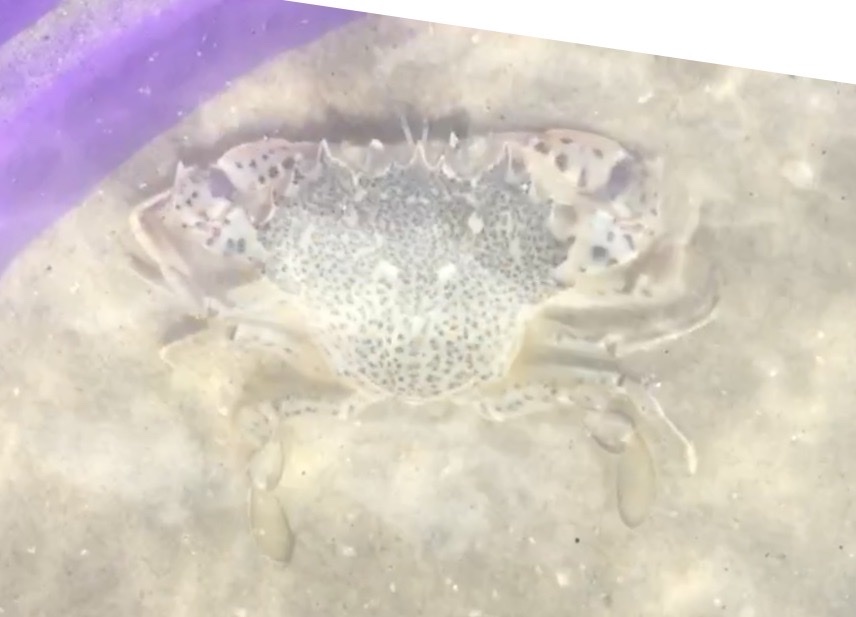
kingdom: Animalia
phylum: Arthropoda
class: Malacostraca
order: Decapoda
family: Ovalipidae
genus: Ovalipes
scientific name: Ovalipes ocellatus
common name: Lady crab
